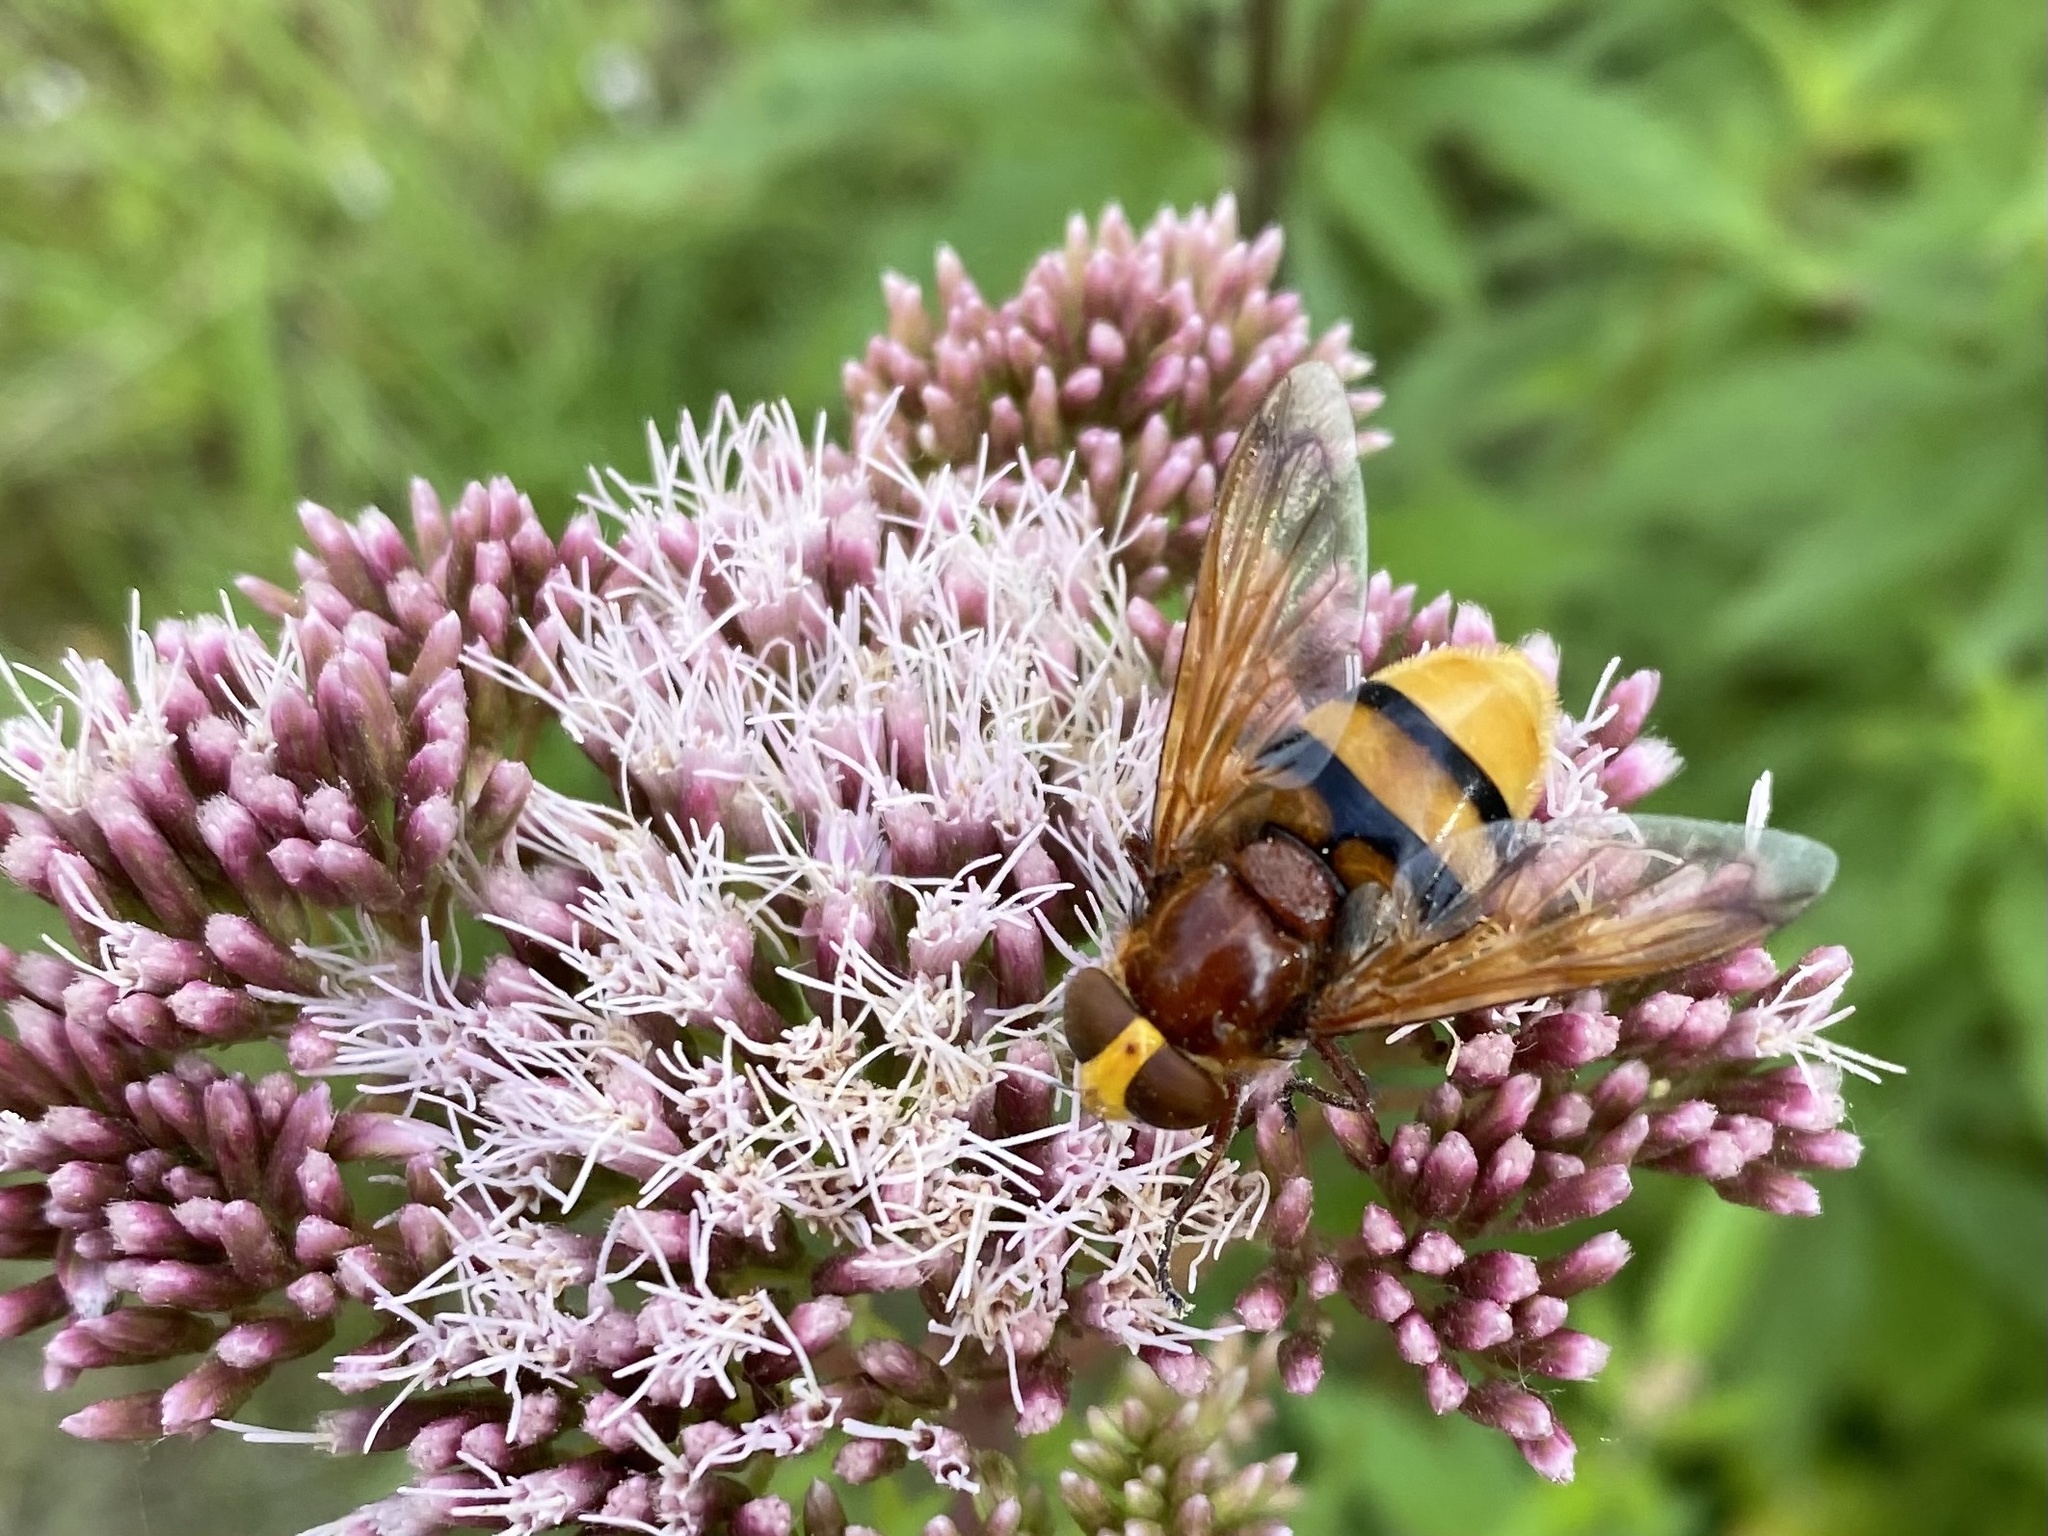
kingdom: Animalia
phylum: Arthropoda
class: Insecta
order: Diptera
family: Syrphidae
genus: Volucella
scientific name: Volucella zonaria
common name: Hornet hoverfly
